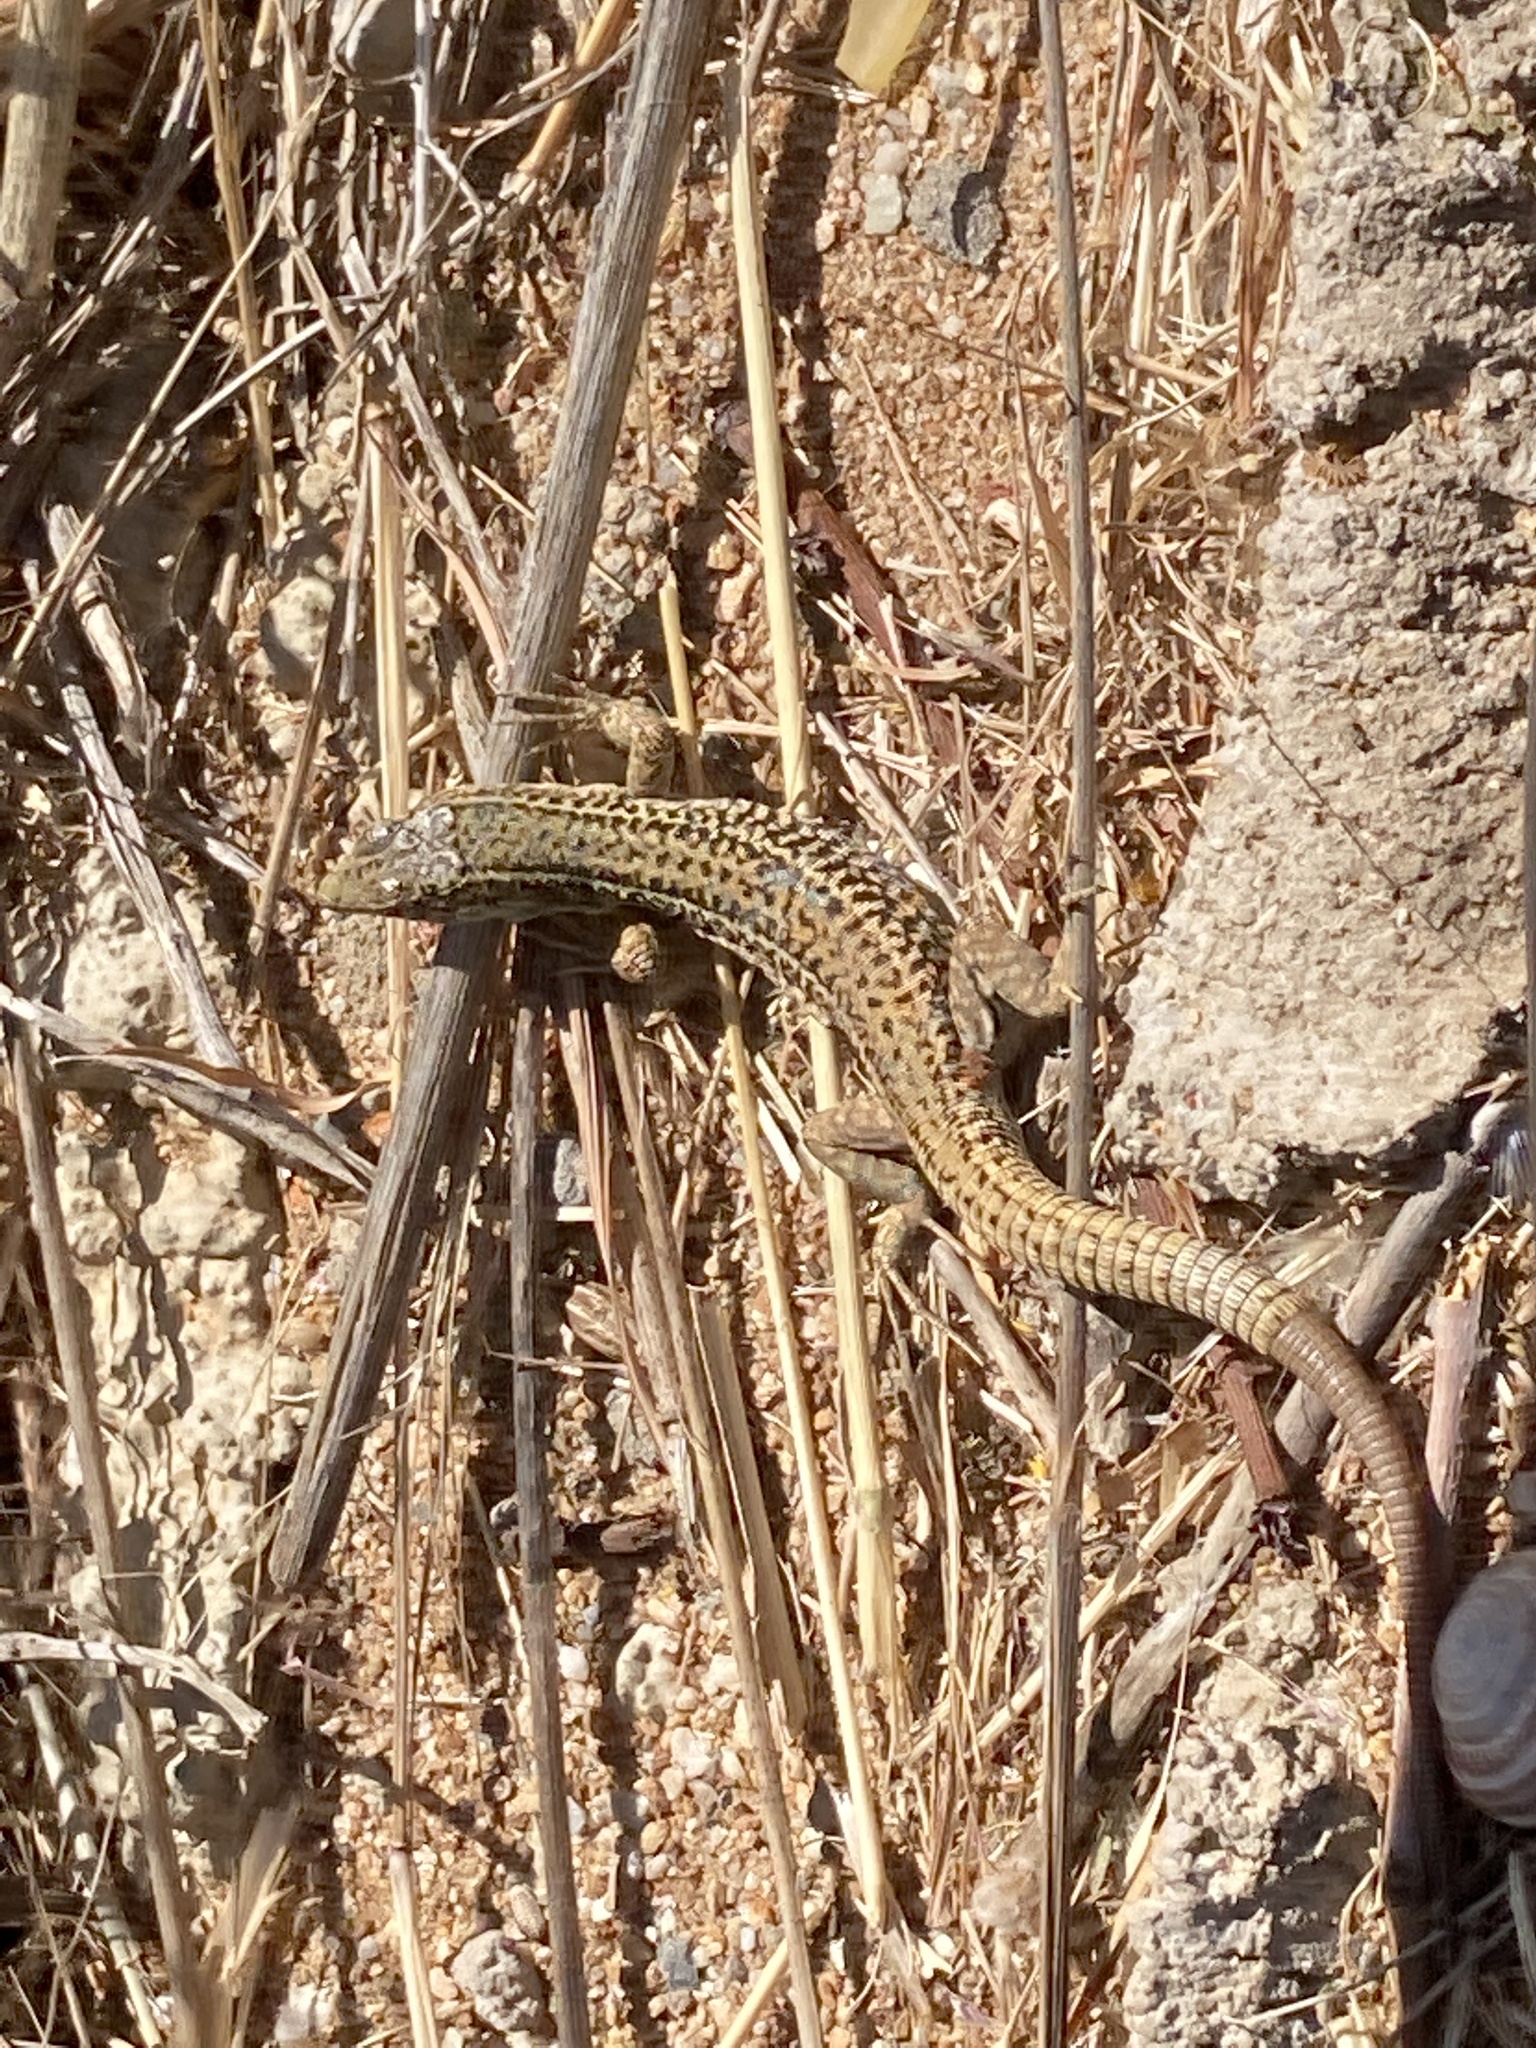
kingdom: Animalia
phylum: Chordata
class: Squamata
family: Lacertidae
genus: Podarcis
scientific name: Podarcis erhardii
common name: Erhard's wall lizard
